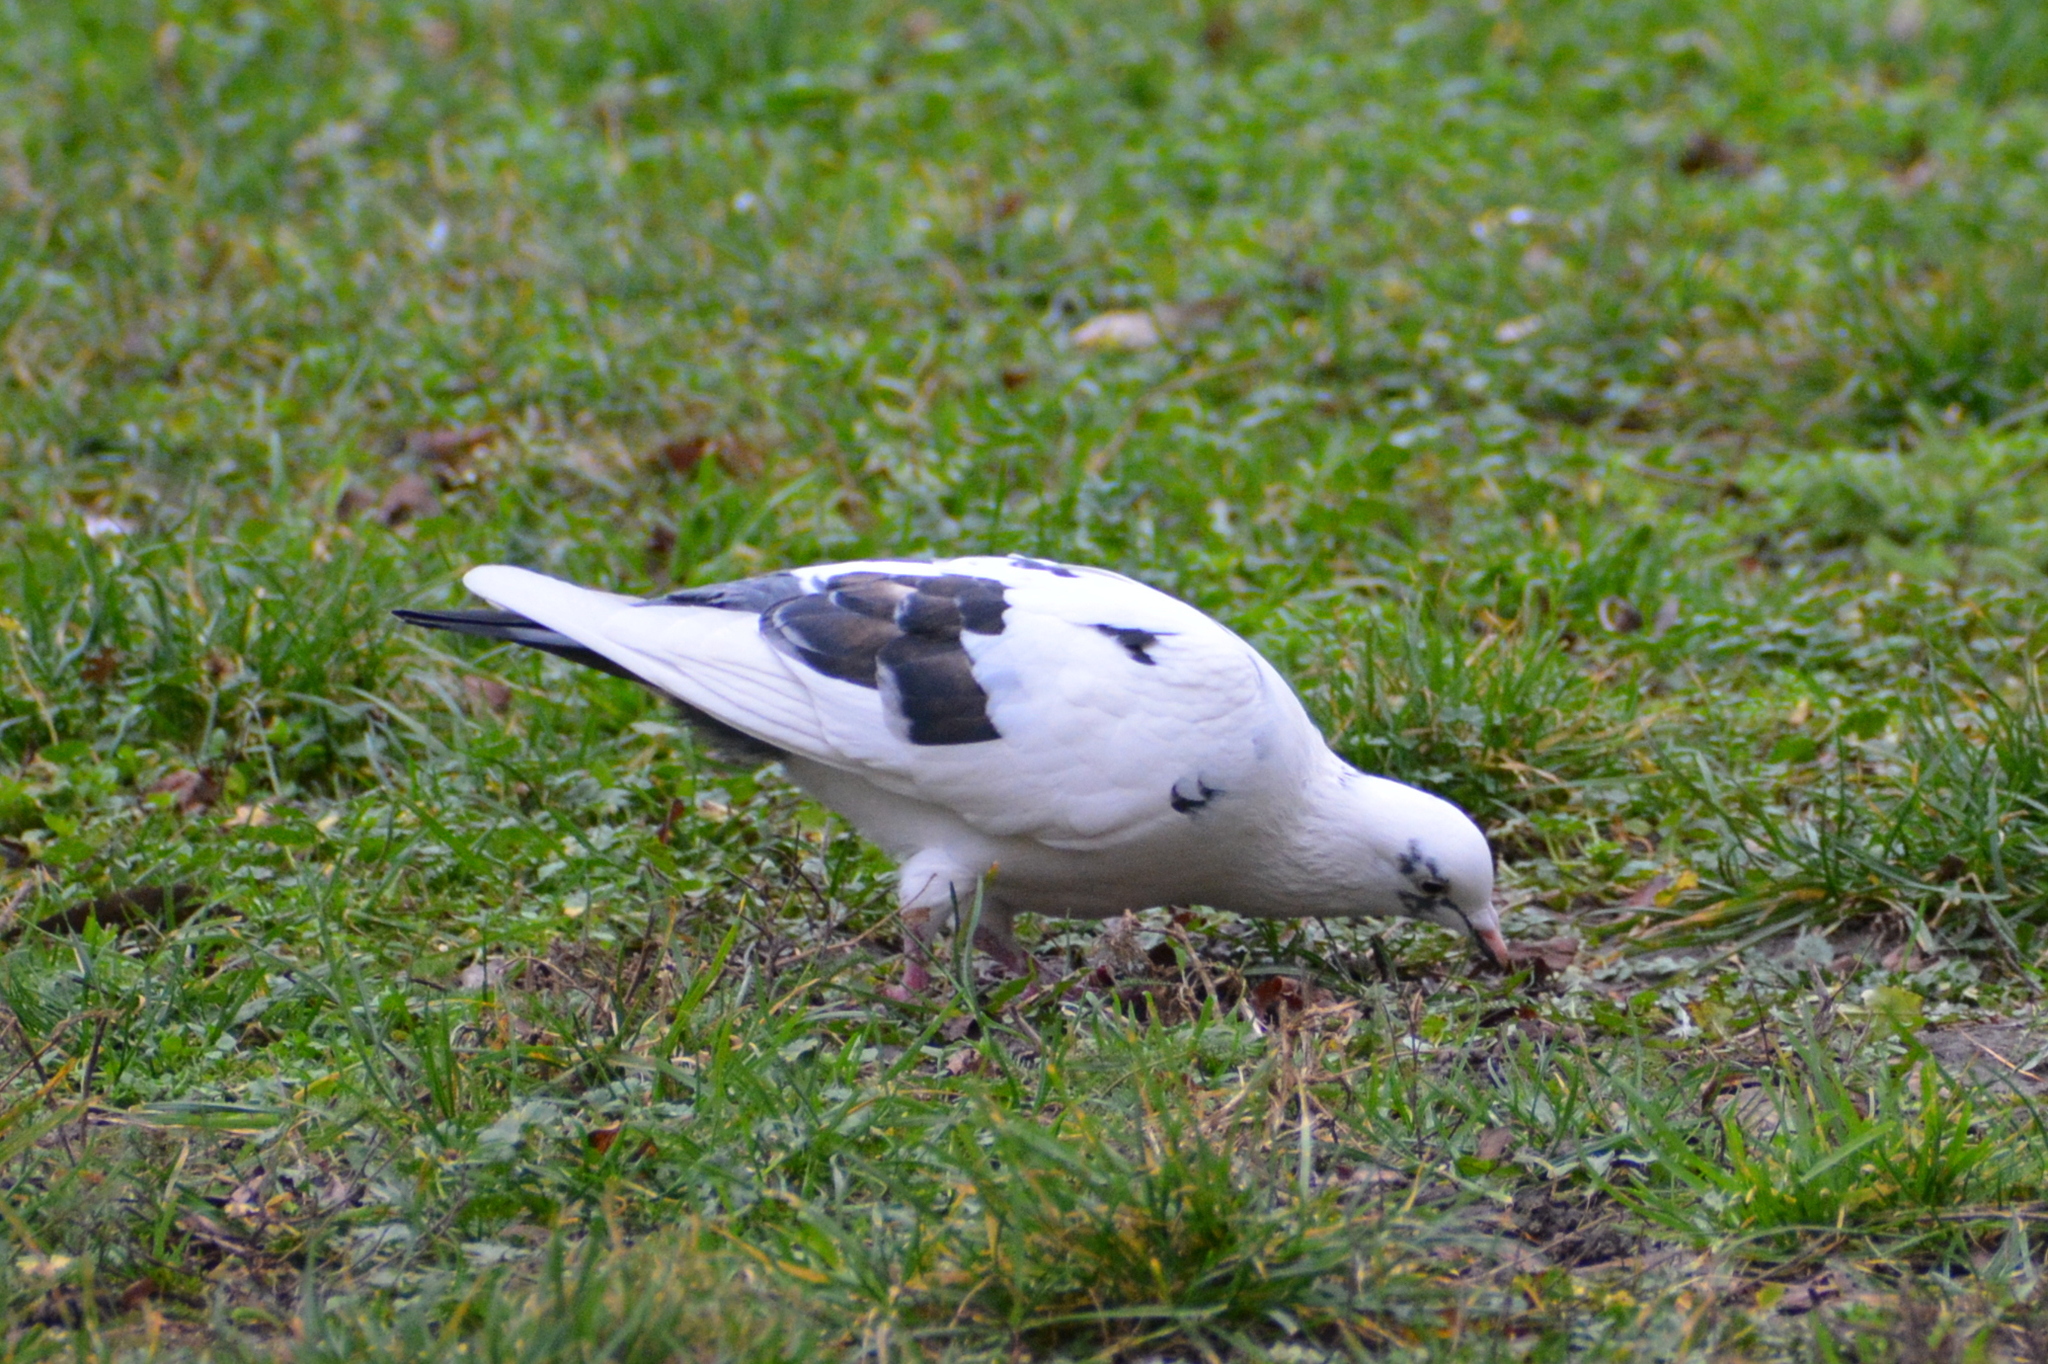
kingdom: Animalia
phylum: Chordata
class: Aves
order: Columbiformes
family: Columbidae
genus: Columba
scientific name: Columba livia
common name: Rock pigeon
